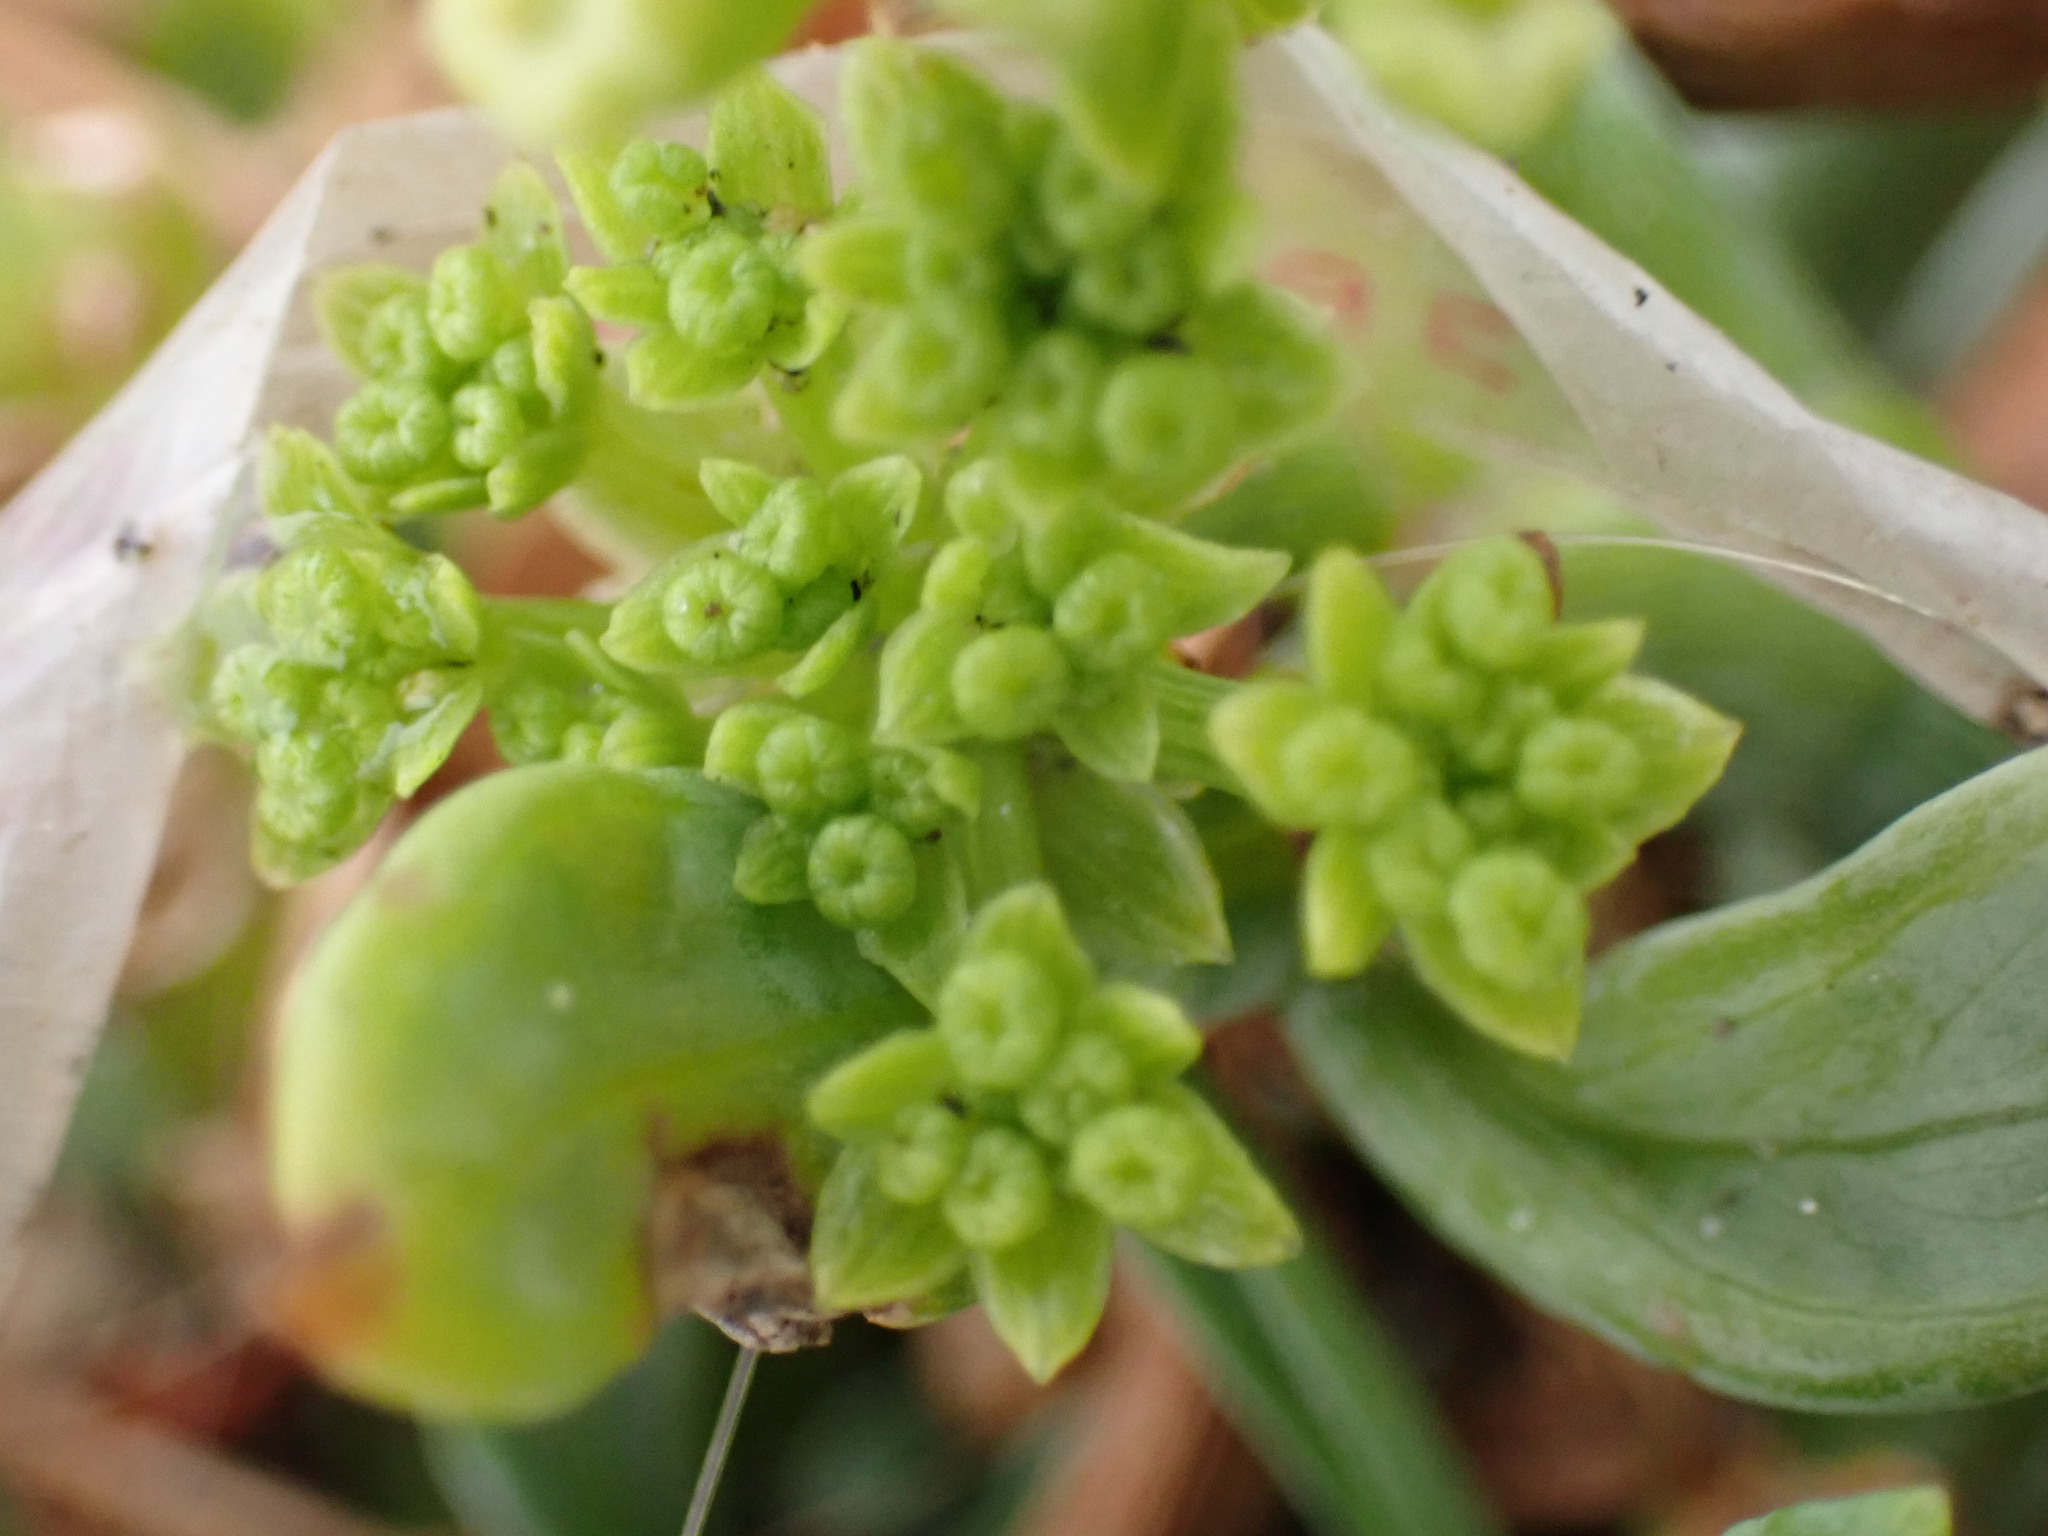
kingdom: Plantae
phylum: Tracheophyta
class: Magnoliopsida
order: Apiales
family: Apiaceae
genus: Crithmum
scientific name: Crithmum maritimum
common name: Rock samphire
